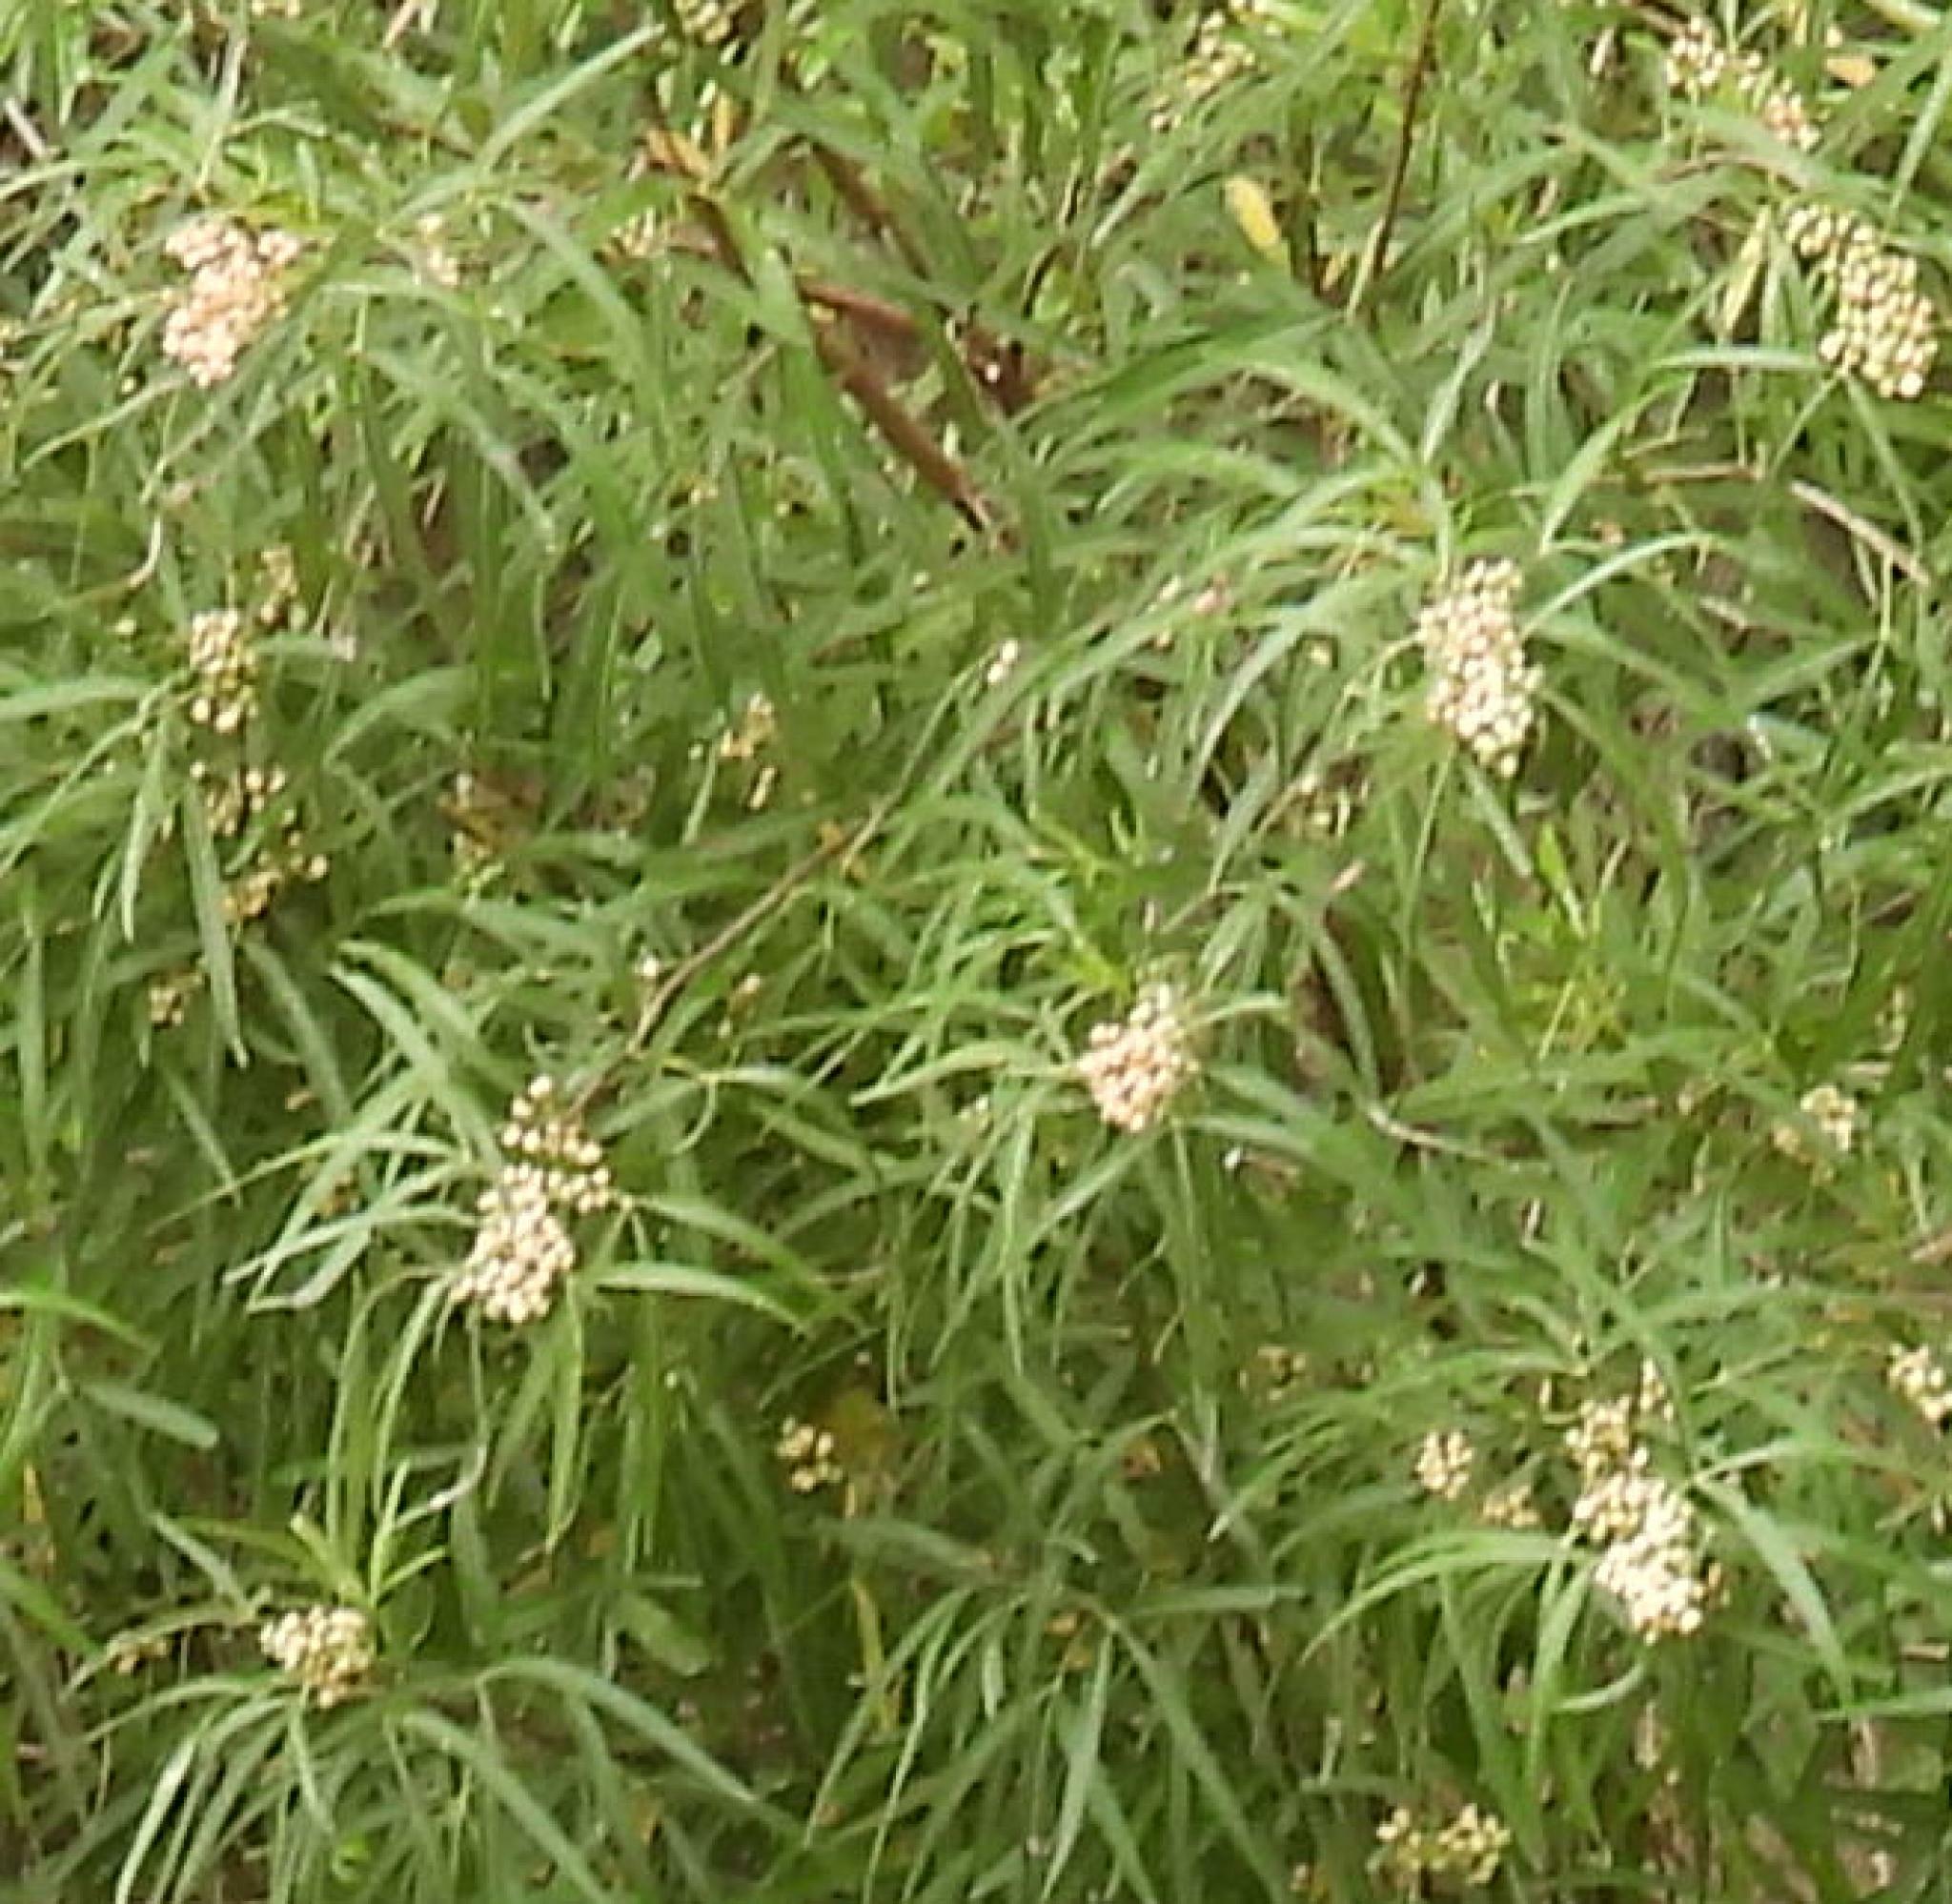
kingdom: Plantae
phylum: Tracheophyta
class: Magnoliopsida
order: Sapindales
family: Anacardiaceae
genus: Searsia
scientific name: Searsia lancea
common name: Cashew
